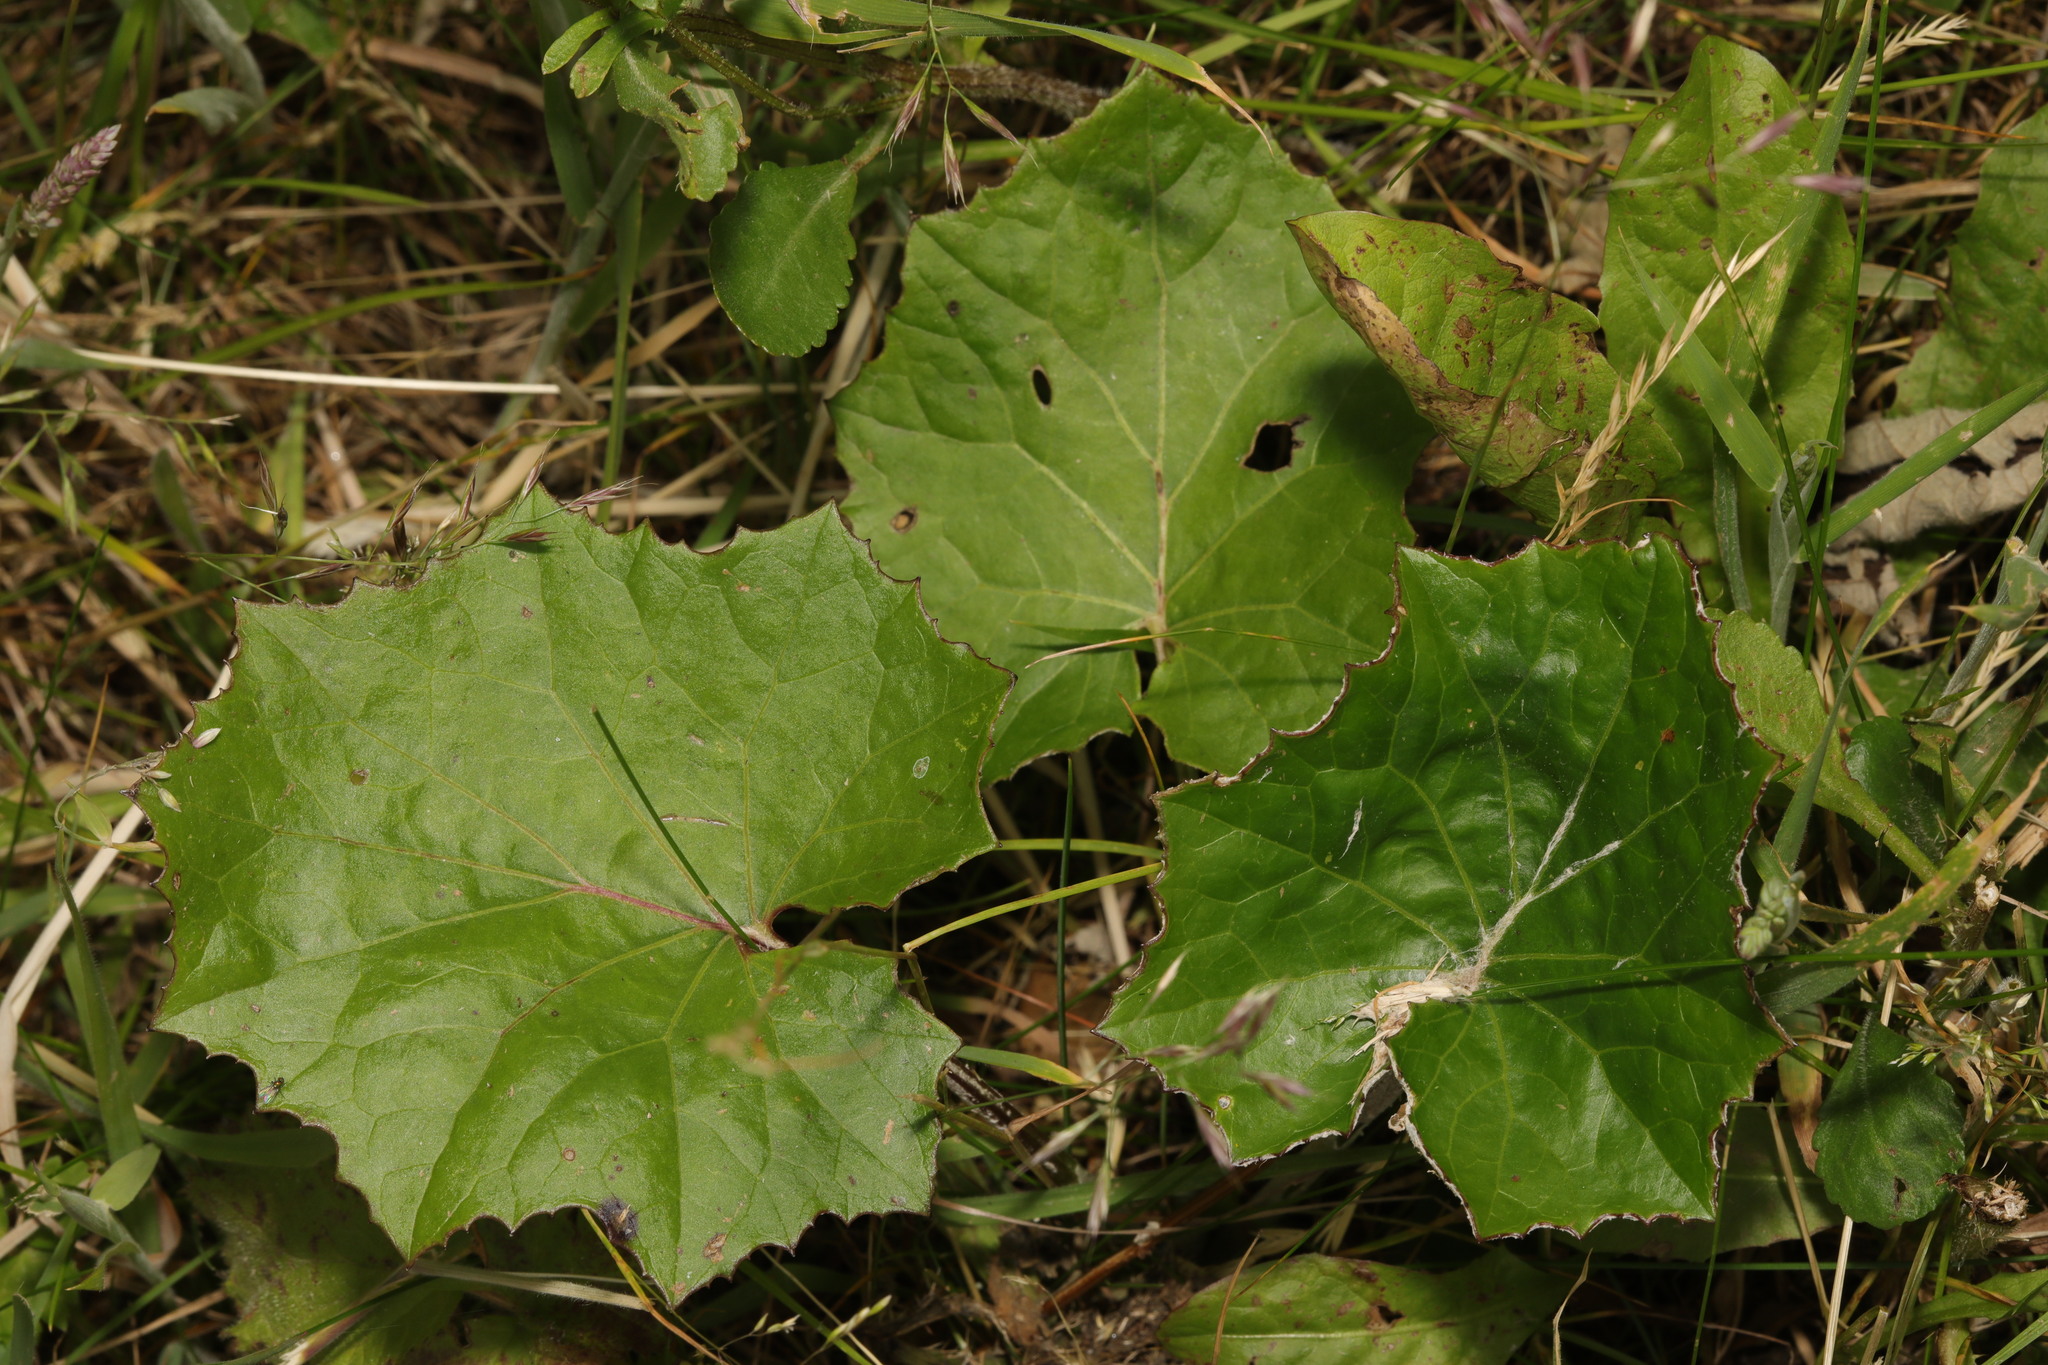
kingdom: Plantae
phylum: Tracheophyta
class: Magnoliopsida
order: Asterales
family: Asteraceae
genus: Tussilago
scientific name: Tussilago farfara
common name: Coltsfoot
